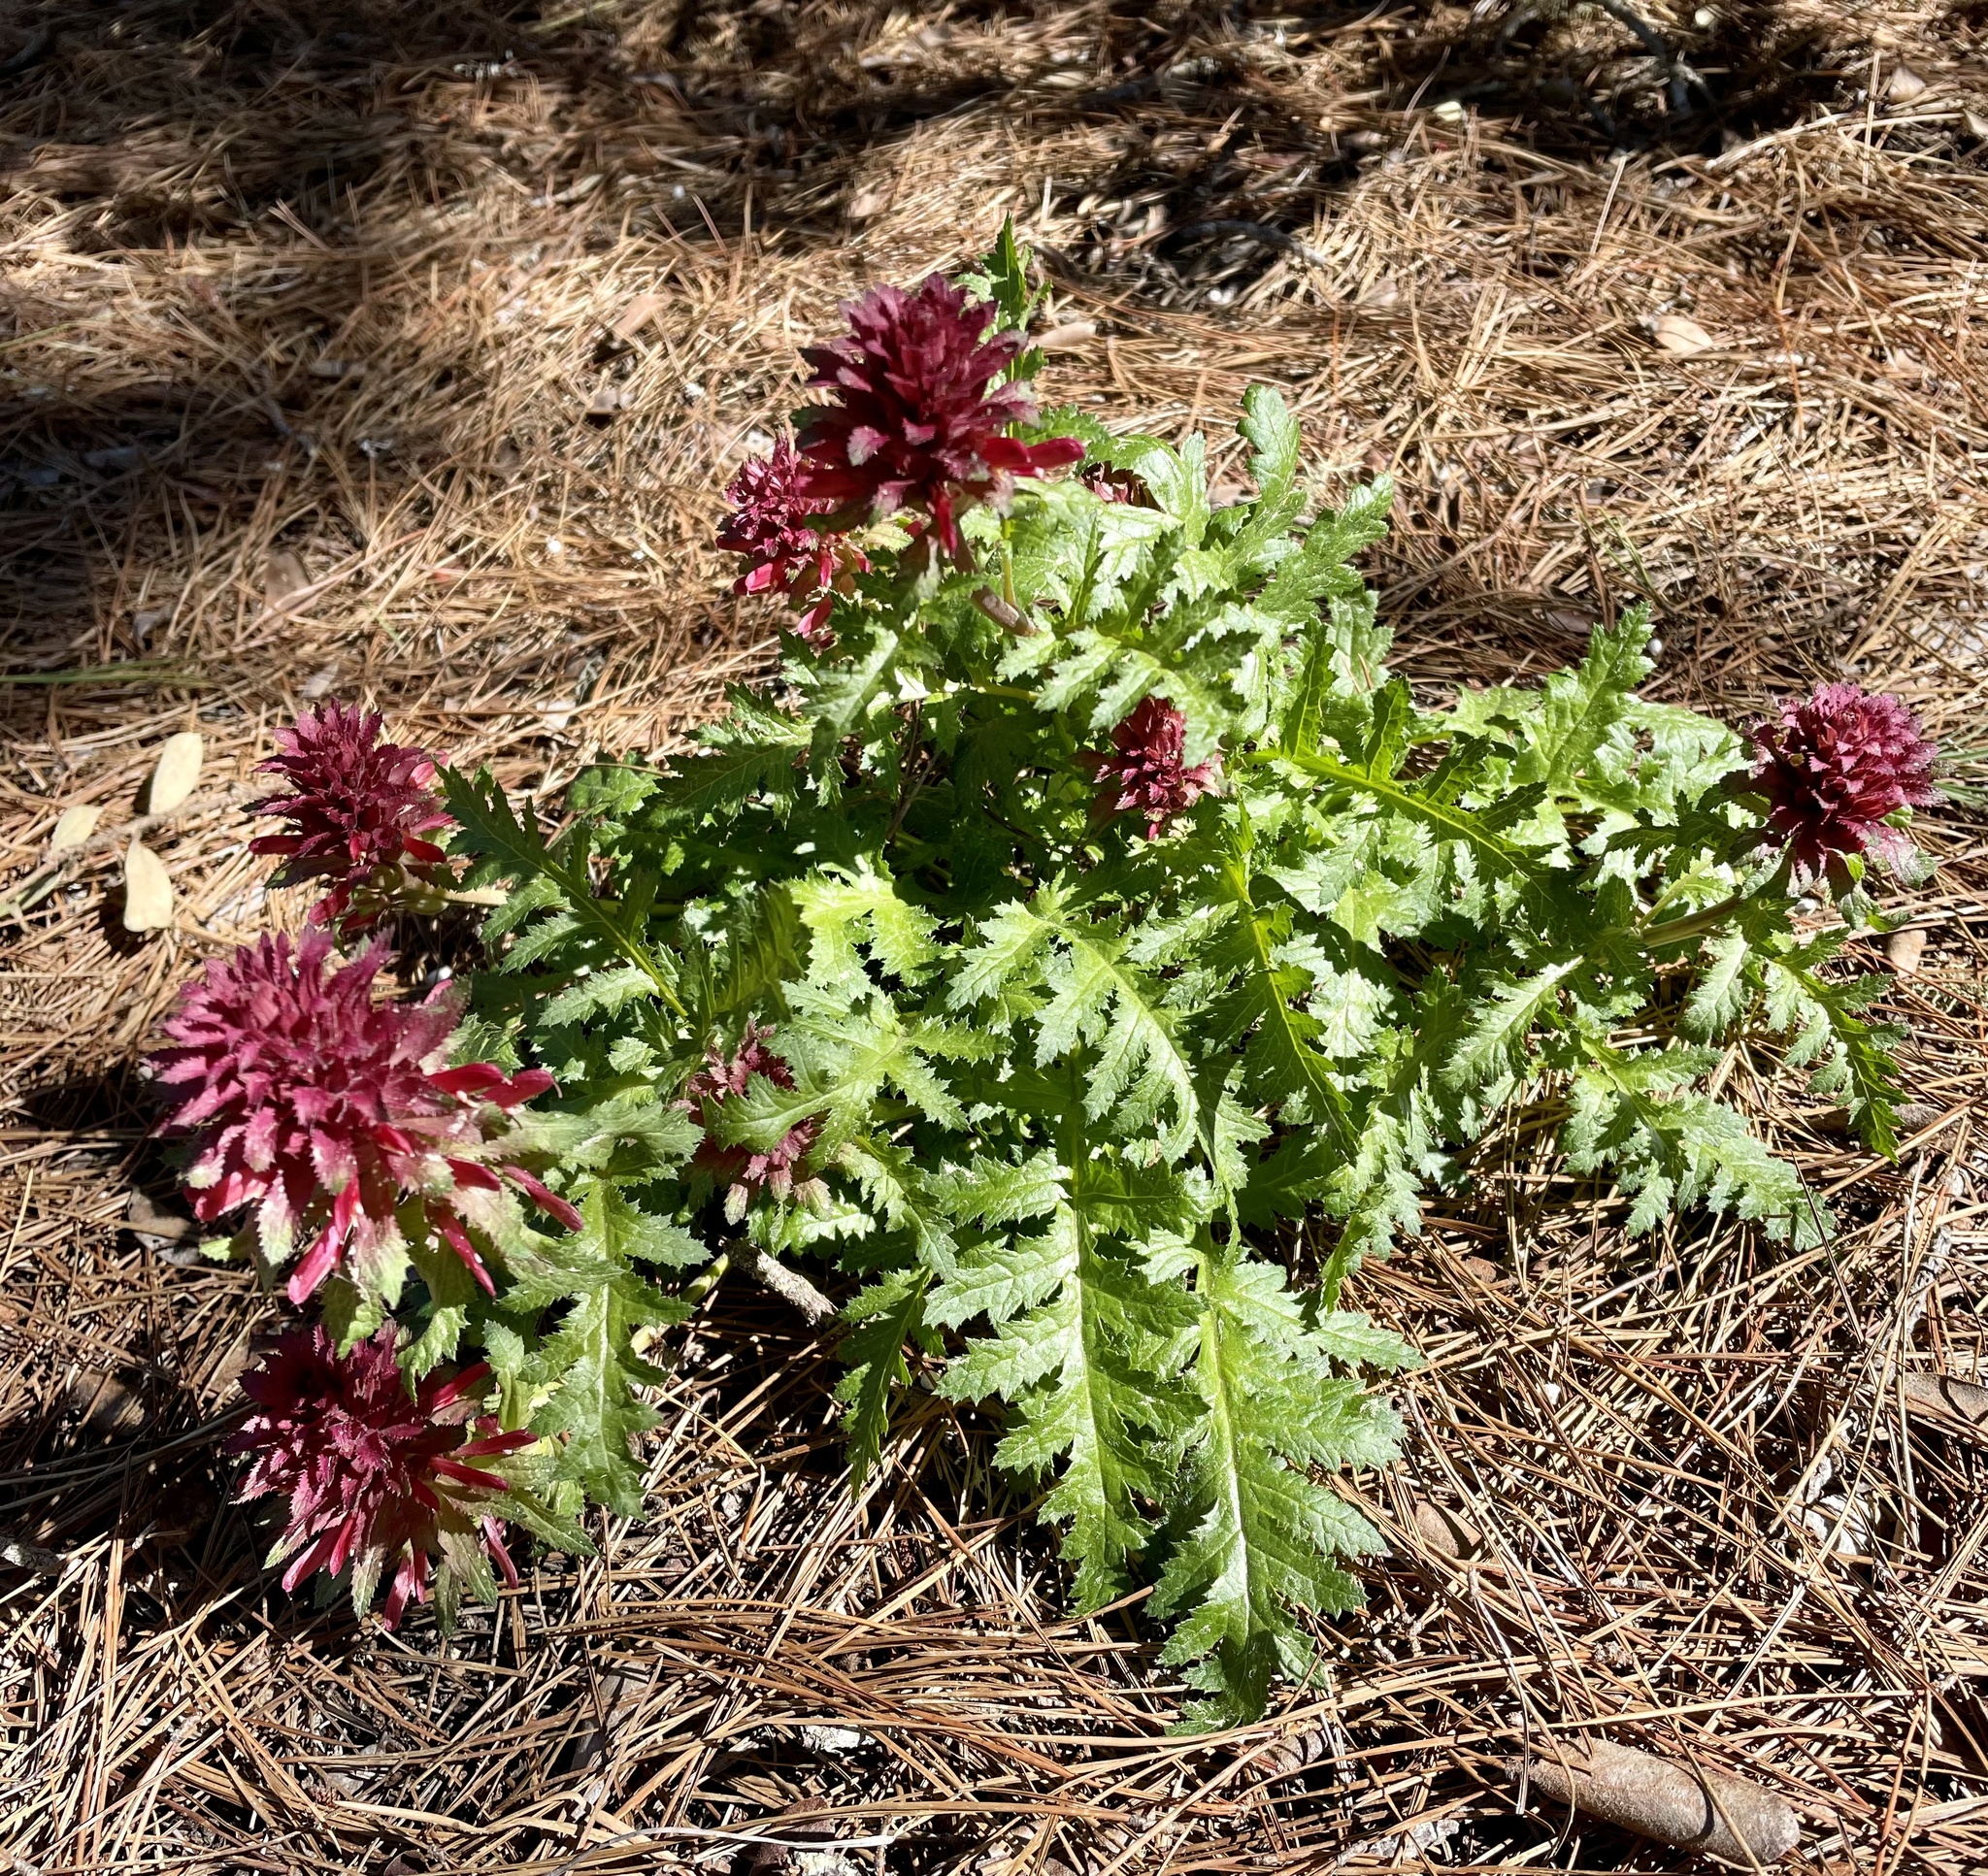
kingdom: Plantae
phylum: Tracheophyta
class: Magnoliopsida
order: Lamiales
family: Orobanchaceae
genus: Pedicularis
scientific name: Pedicularis densiflora
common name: Indian warrior
